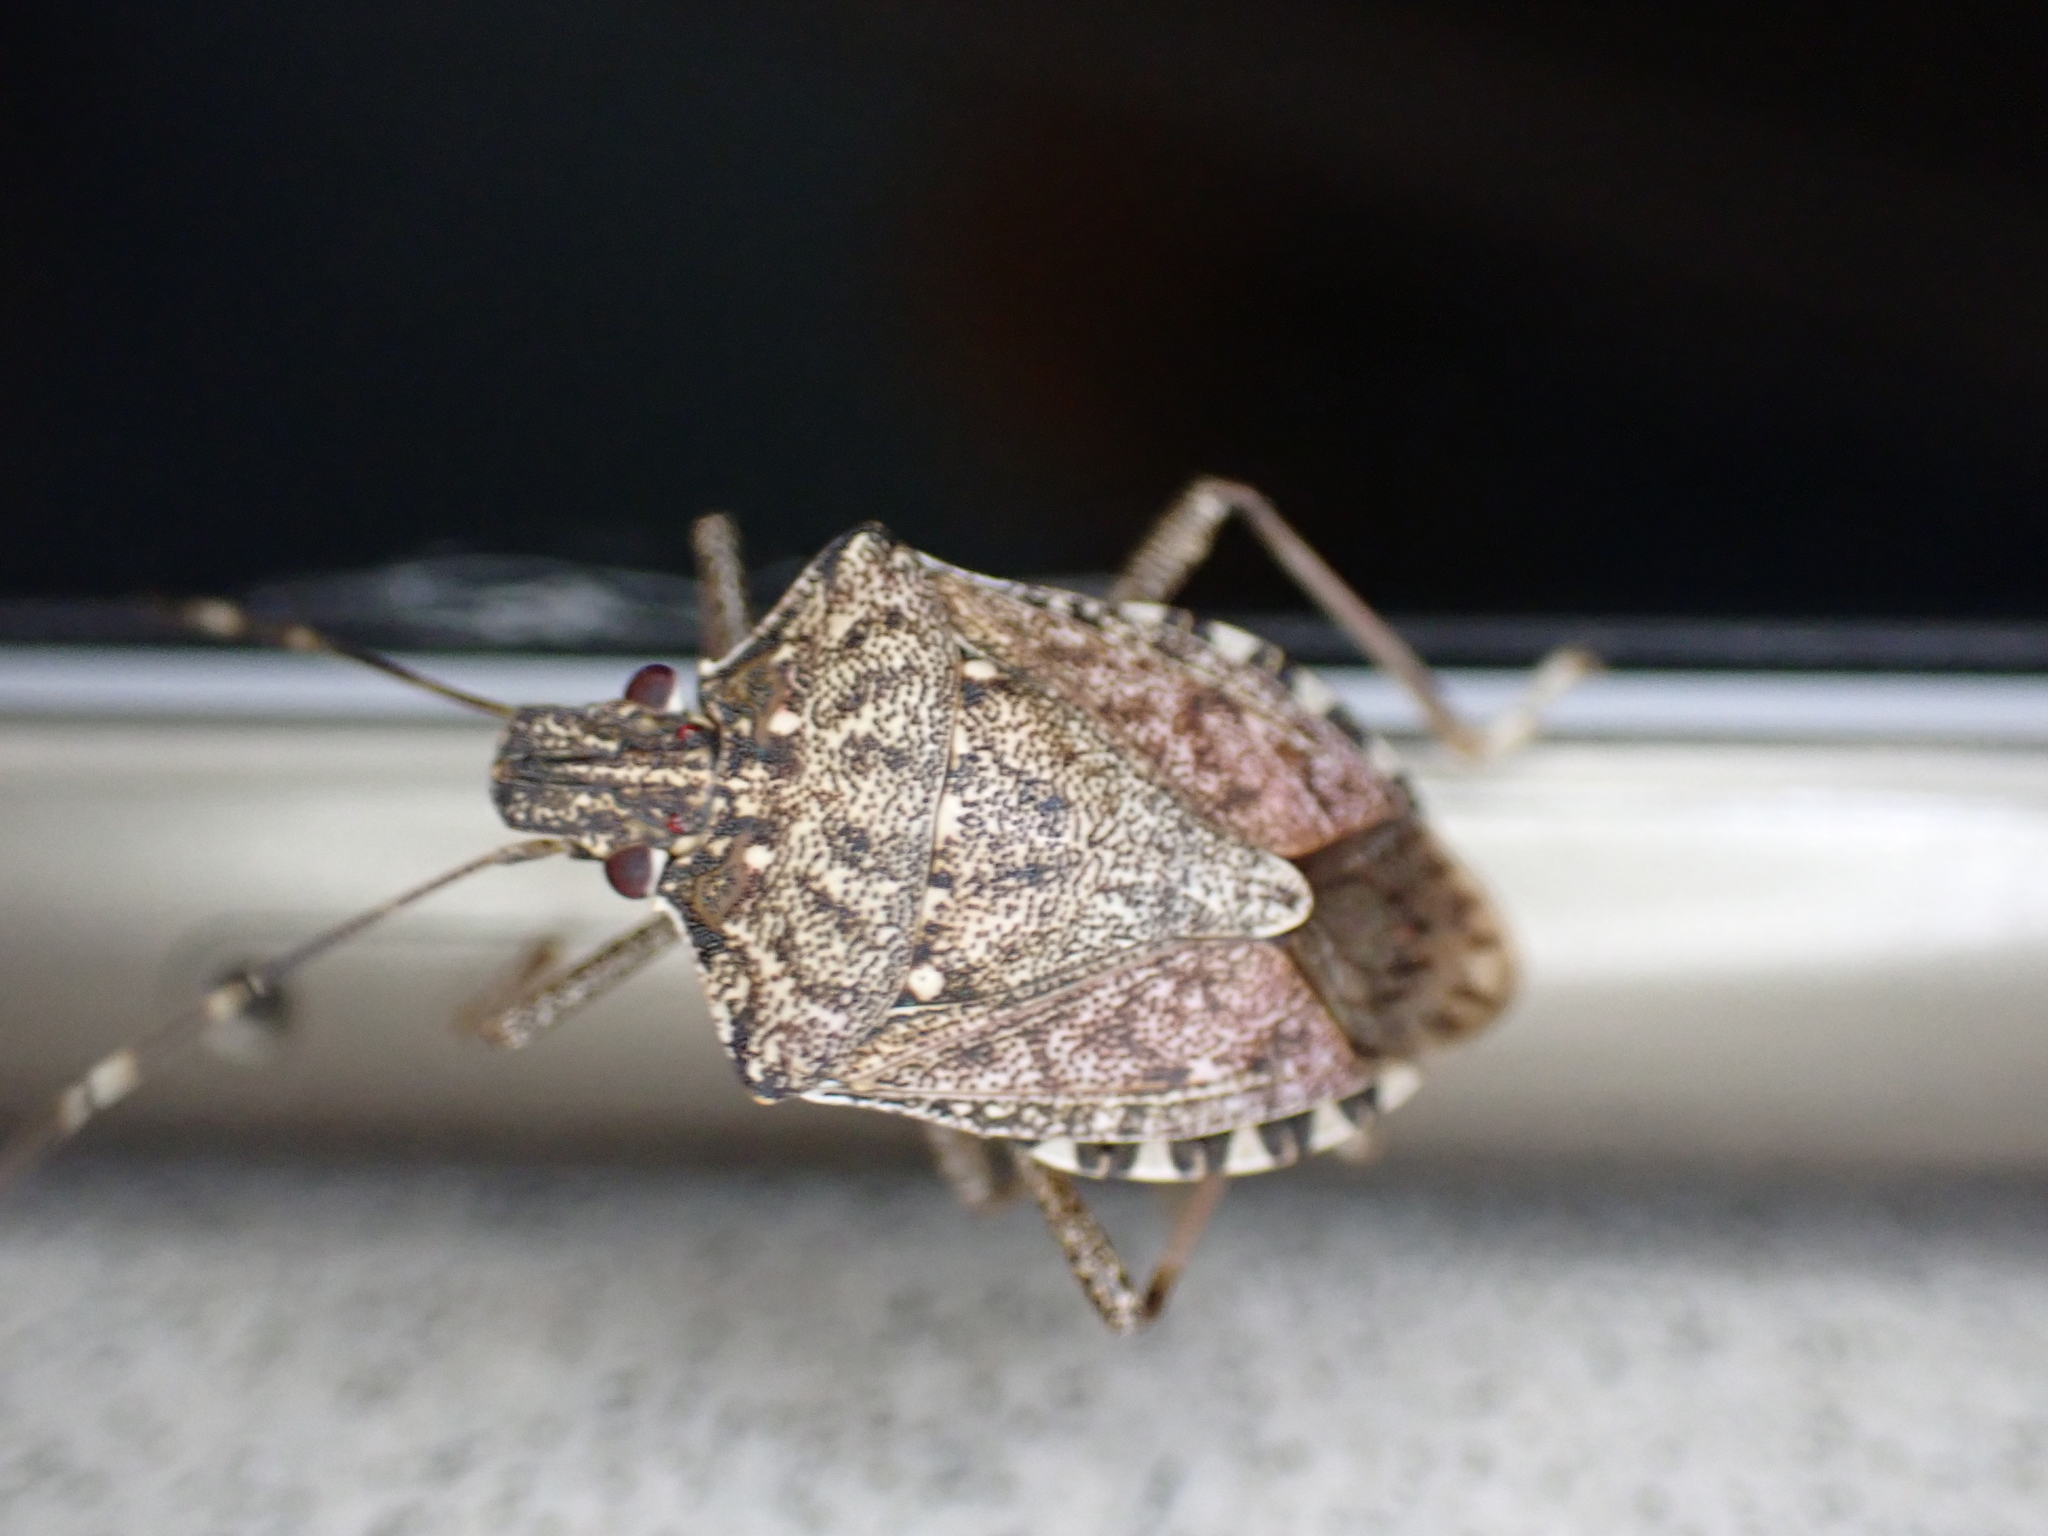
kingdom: Animalia
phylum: Arthropoda
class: Insecta
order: Hemiptera
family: Pentatomidae
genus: Halyomorpha
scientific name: Halyomorpha halys
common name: Brown marmorated stink bug
